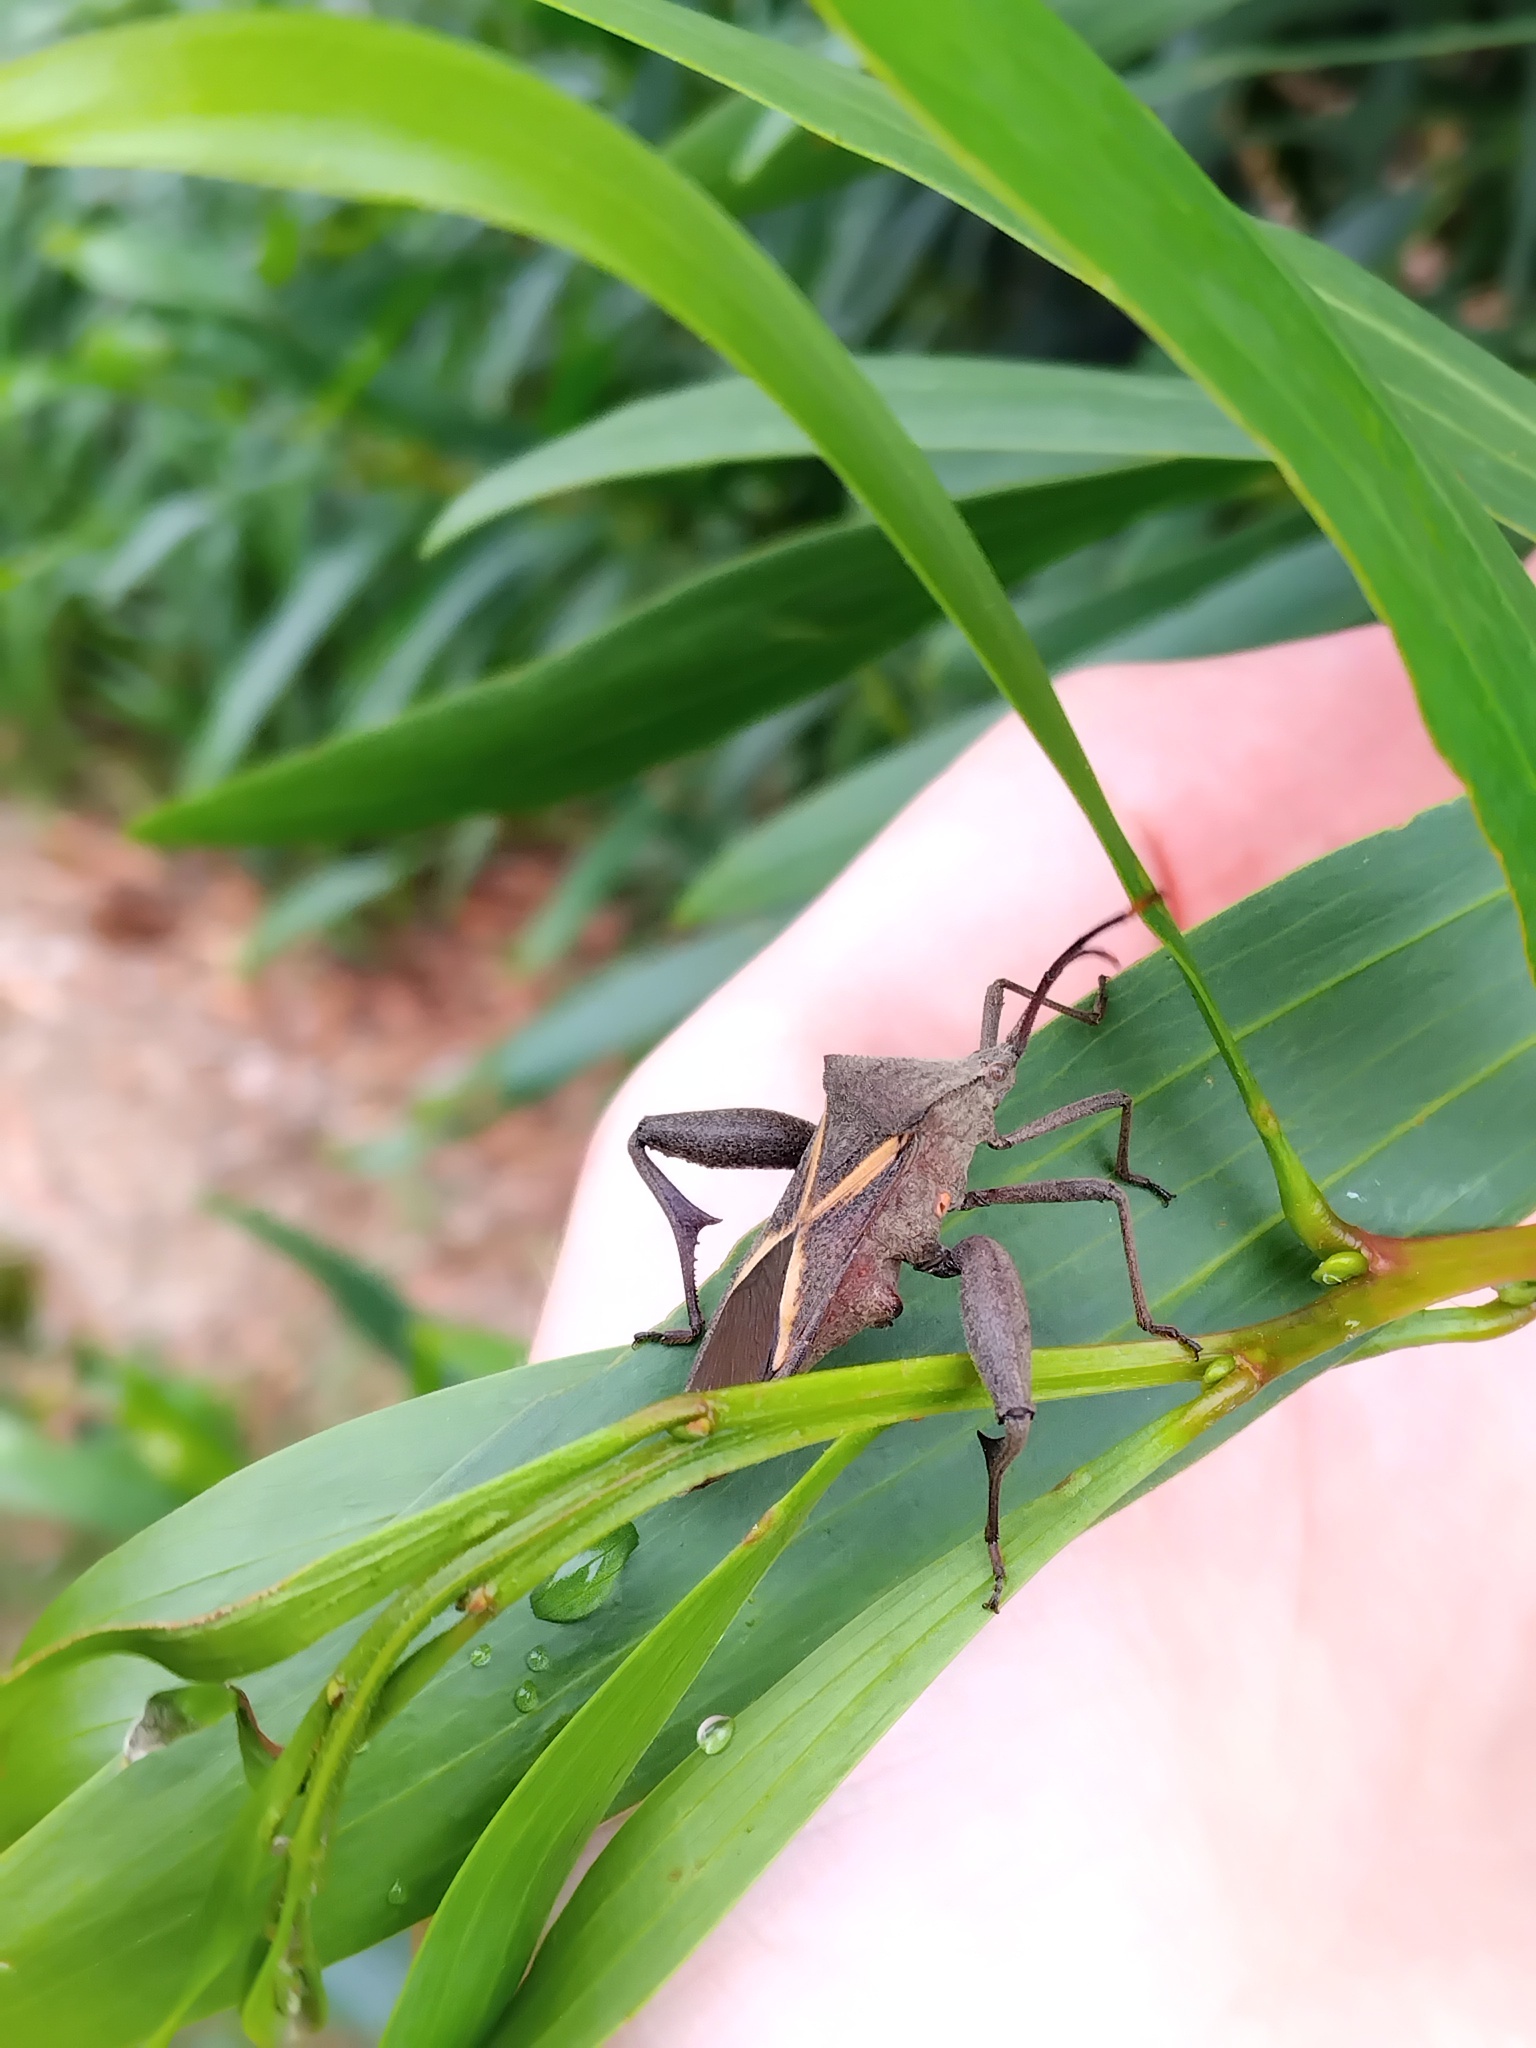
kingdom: Animalia
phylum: Arthropoda
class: Insecta
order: Hemiptera
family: Coreidae
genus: Mictis
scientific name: Mictis profana
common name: Crusader bug
